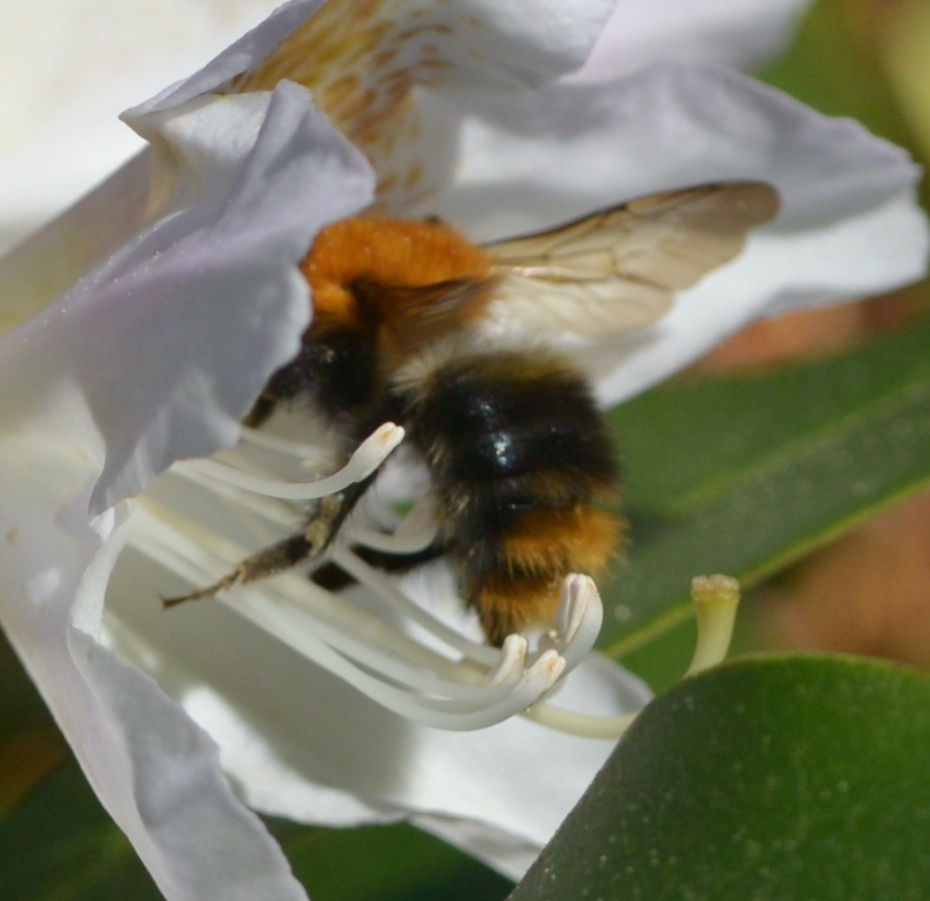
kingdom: Animalia
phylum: Arthropoda
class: Insecta
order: Hymenoptera
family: Apidae
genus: Bombus
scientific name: Bombus pascuorum
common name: Common carder bee
